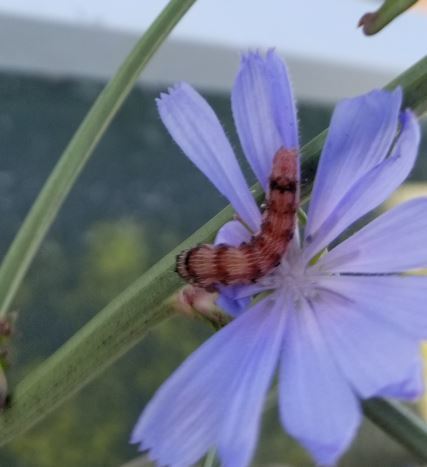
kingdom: Plantae
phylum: Tracheophyta
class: Magnoliopsida
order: Asterales
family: Asteraceae
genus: Cichorium
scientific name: Cichorium intybus
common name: Chicory
